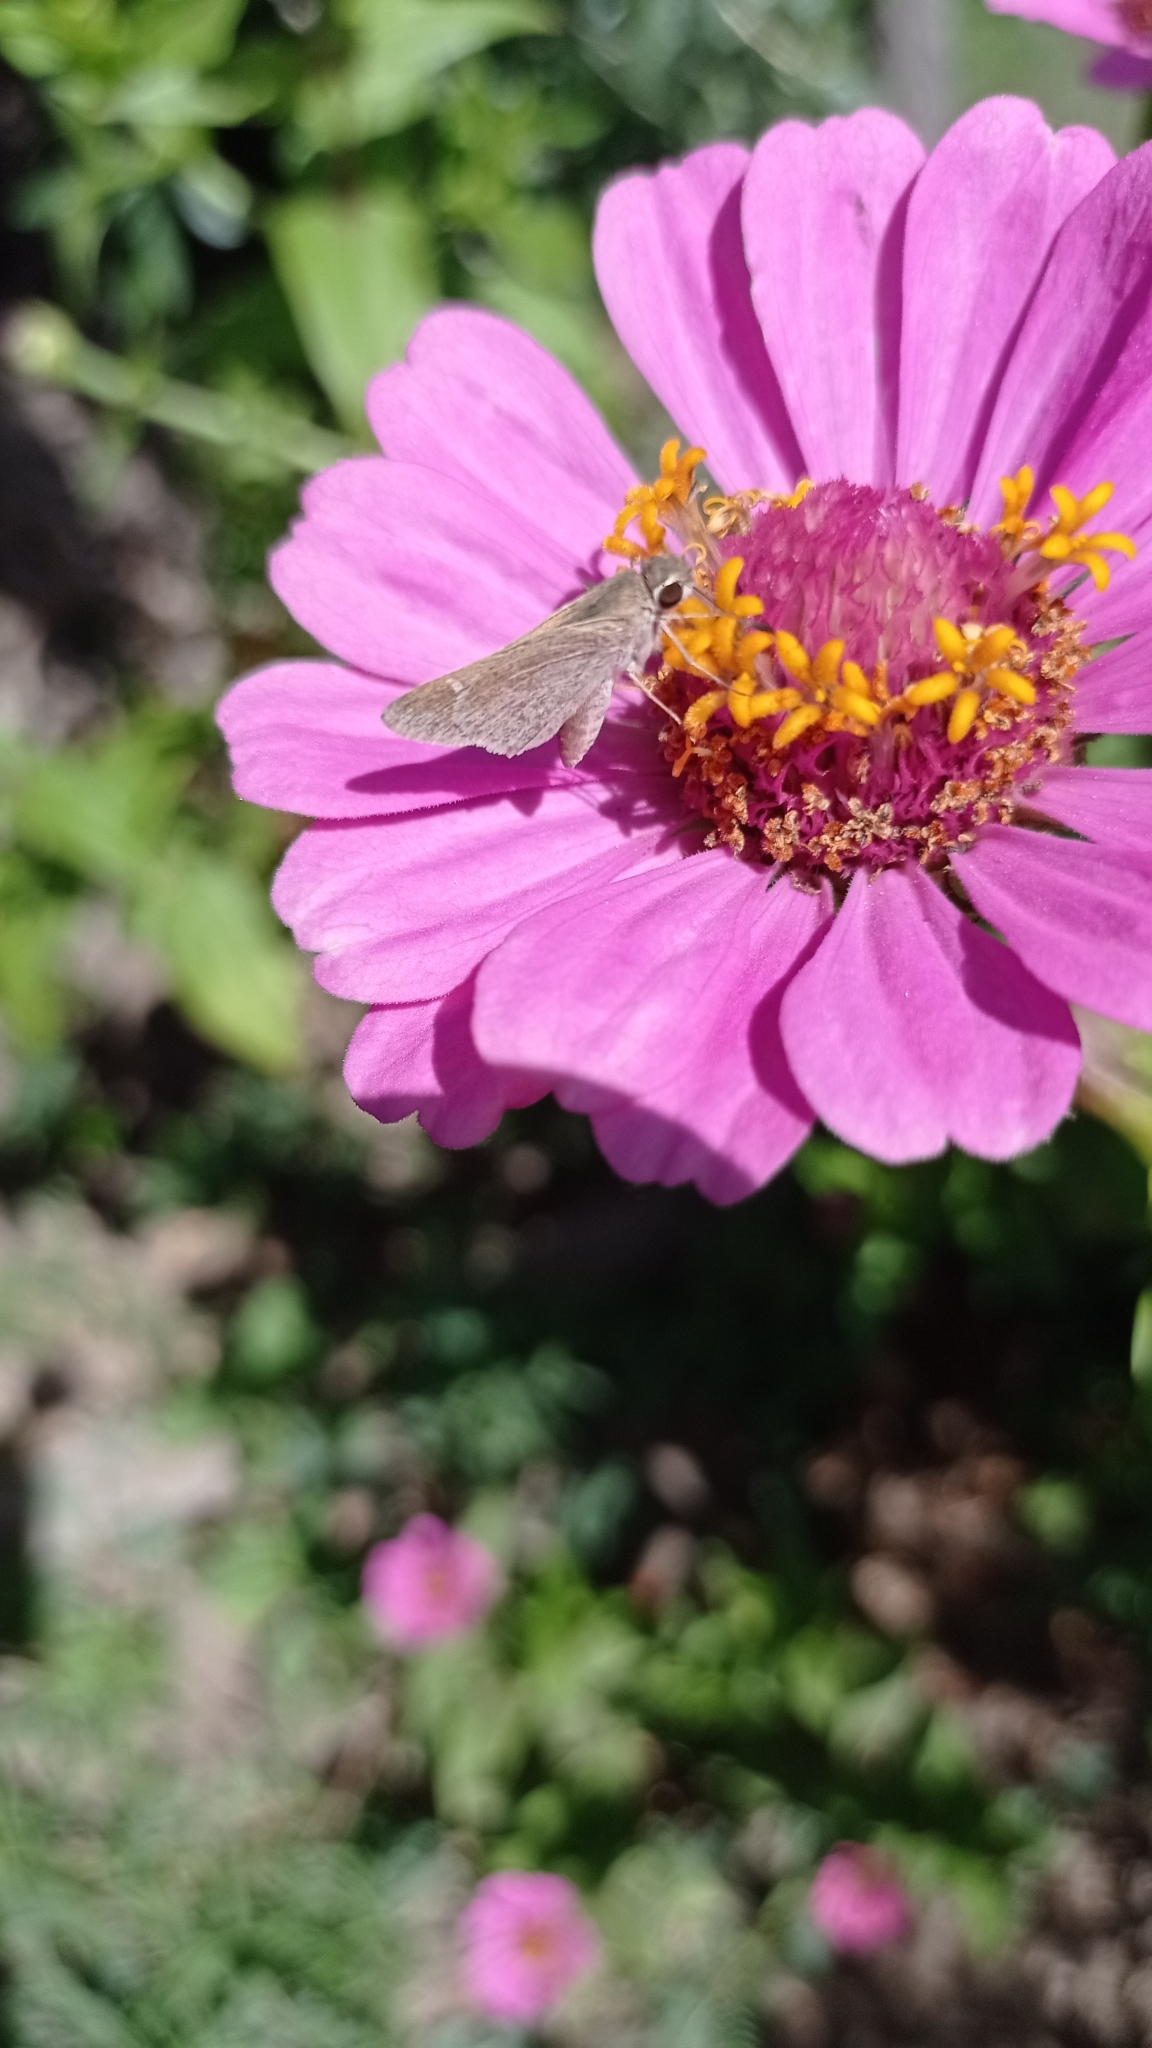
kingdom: Animalia
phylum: Arthropoda
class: Insecta
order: Lepidoptera
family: Hesperiidae
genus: Lerodea
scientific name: Lerodea eufala
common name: Eufala skipper
